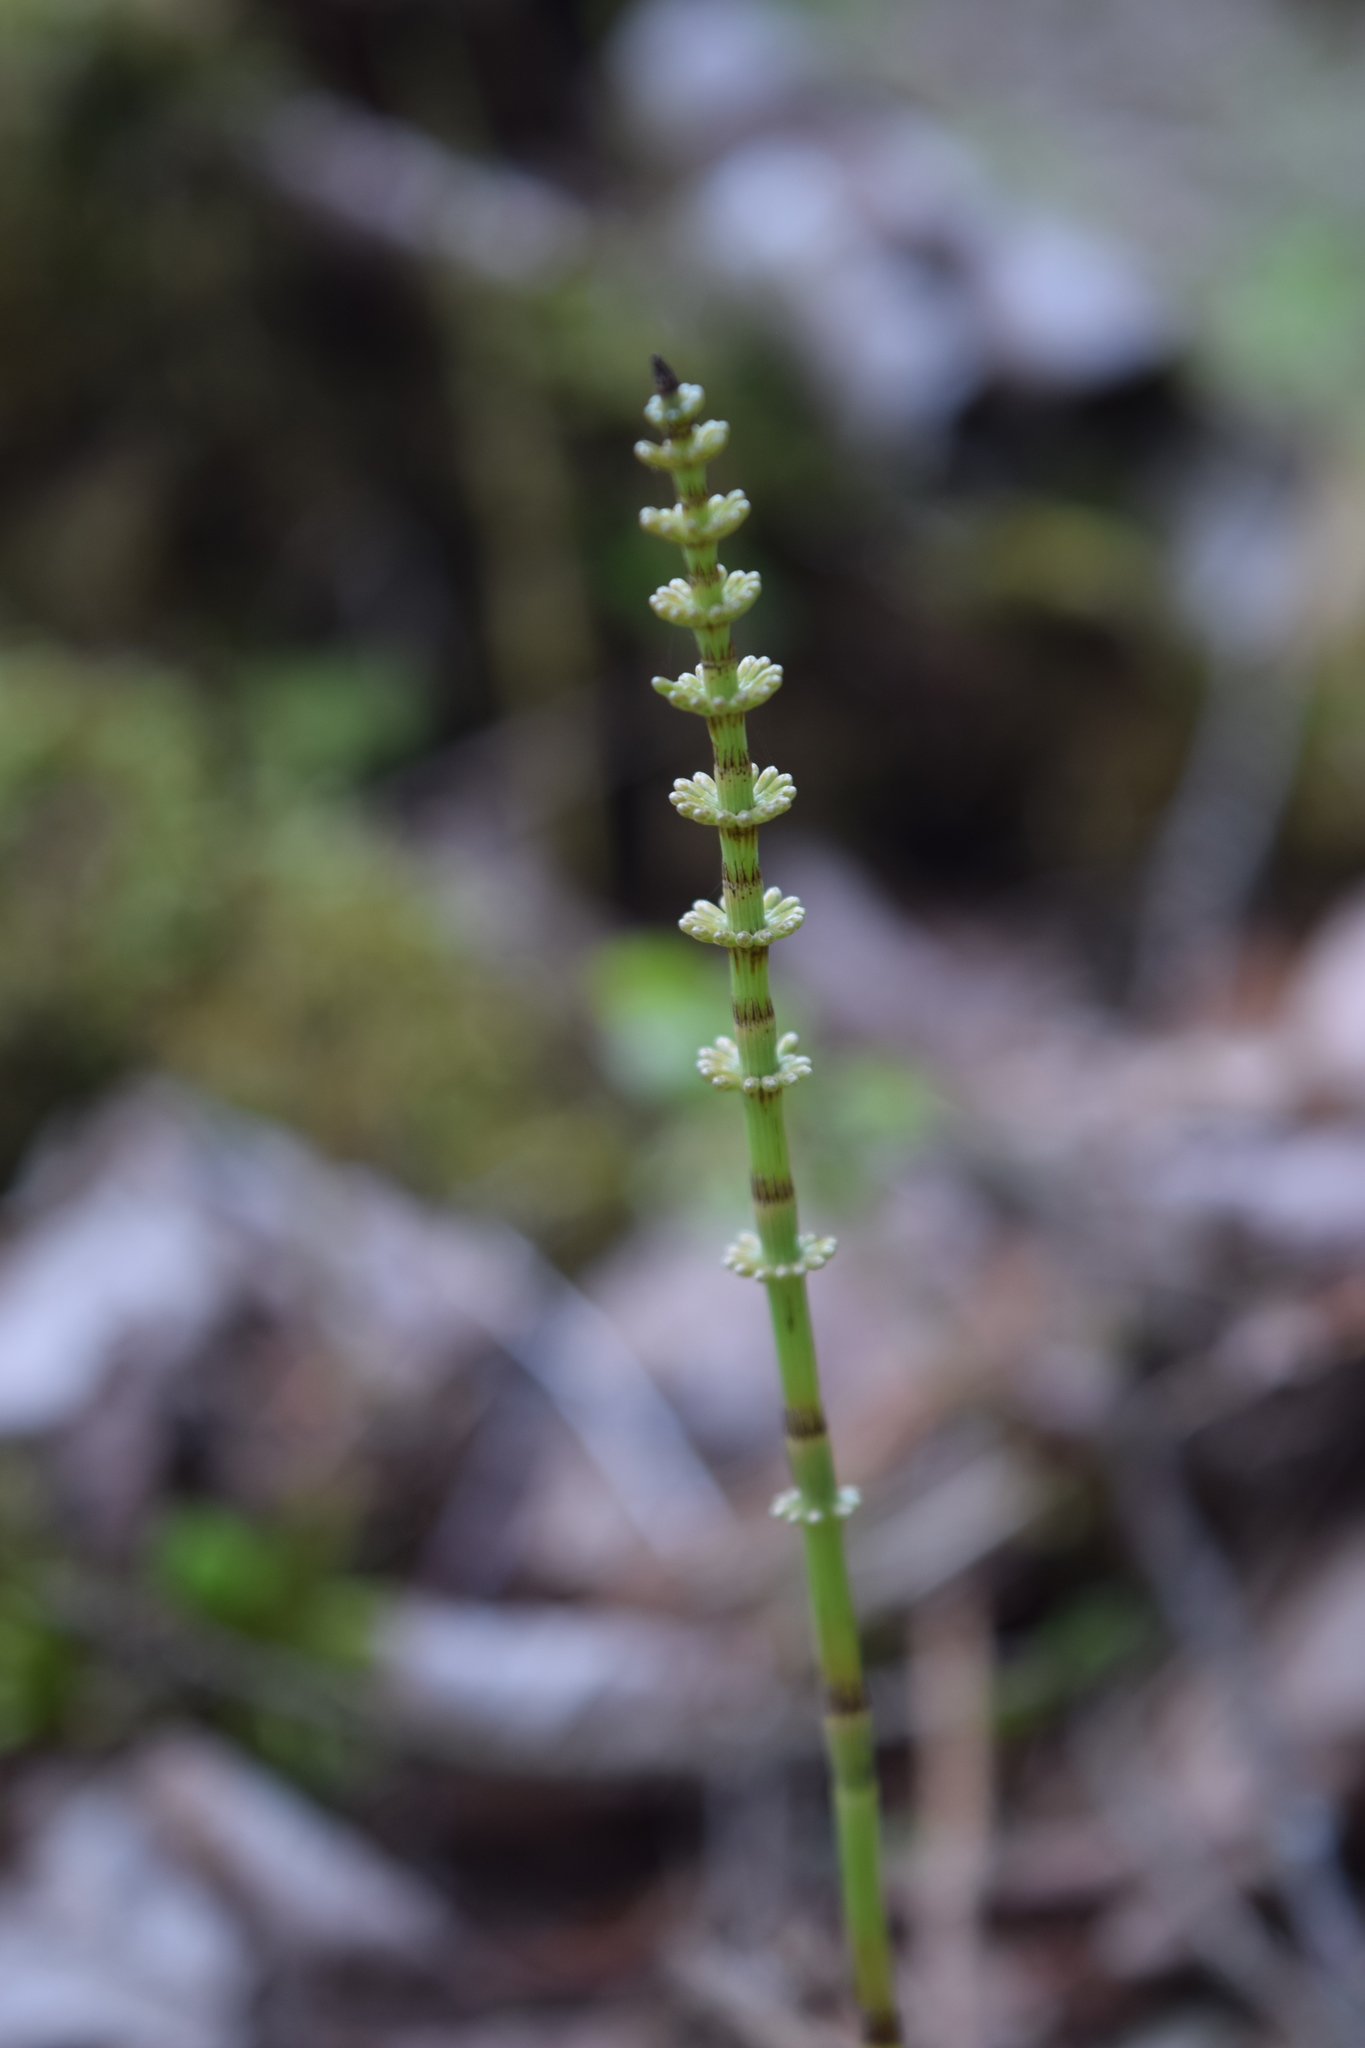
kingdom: Plantae
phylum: Tracheophyta
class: Polypodiopsida
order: Equisetales
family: Equisetaceae
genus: Equisetum
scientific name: Equisetum pratense
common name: Meadow horsetail
